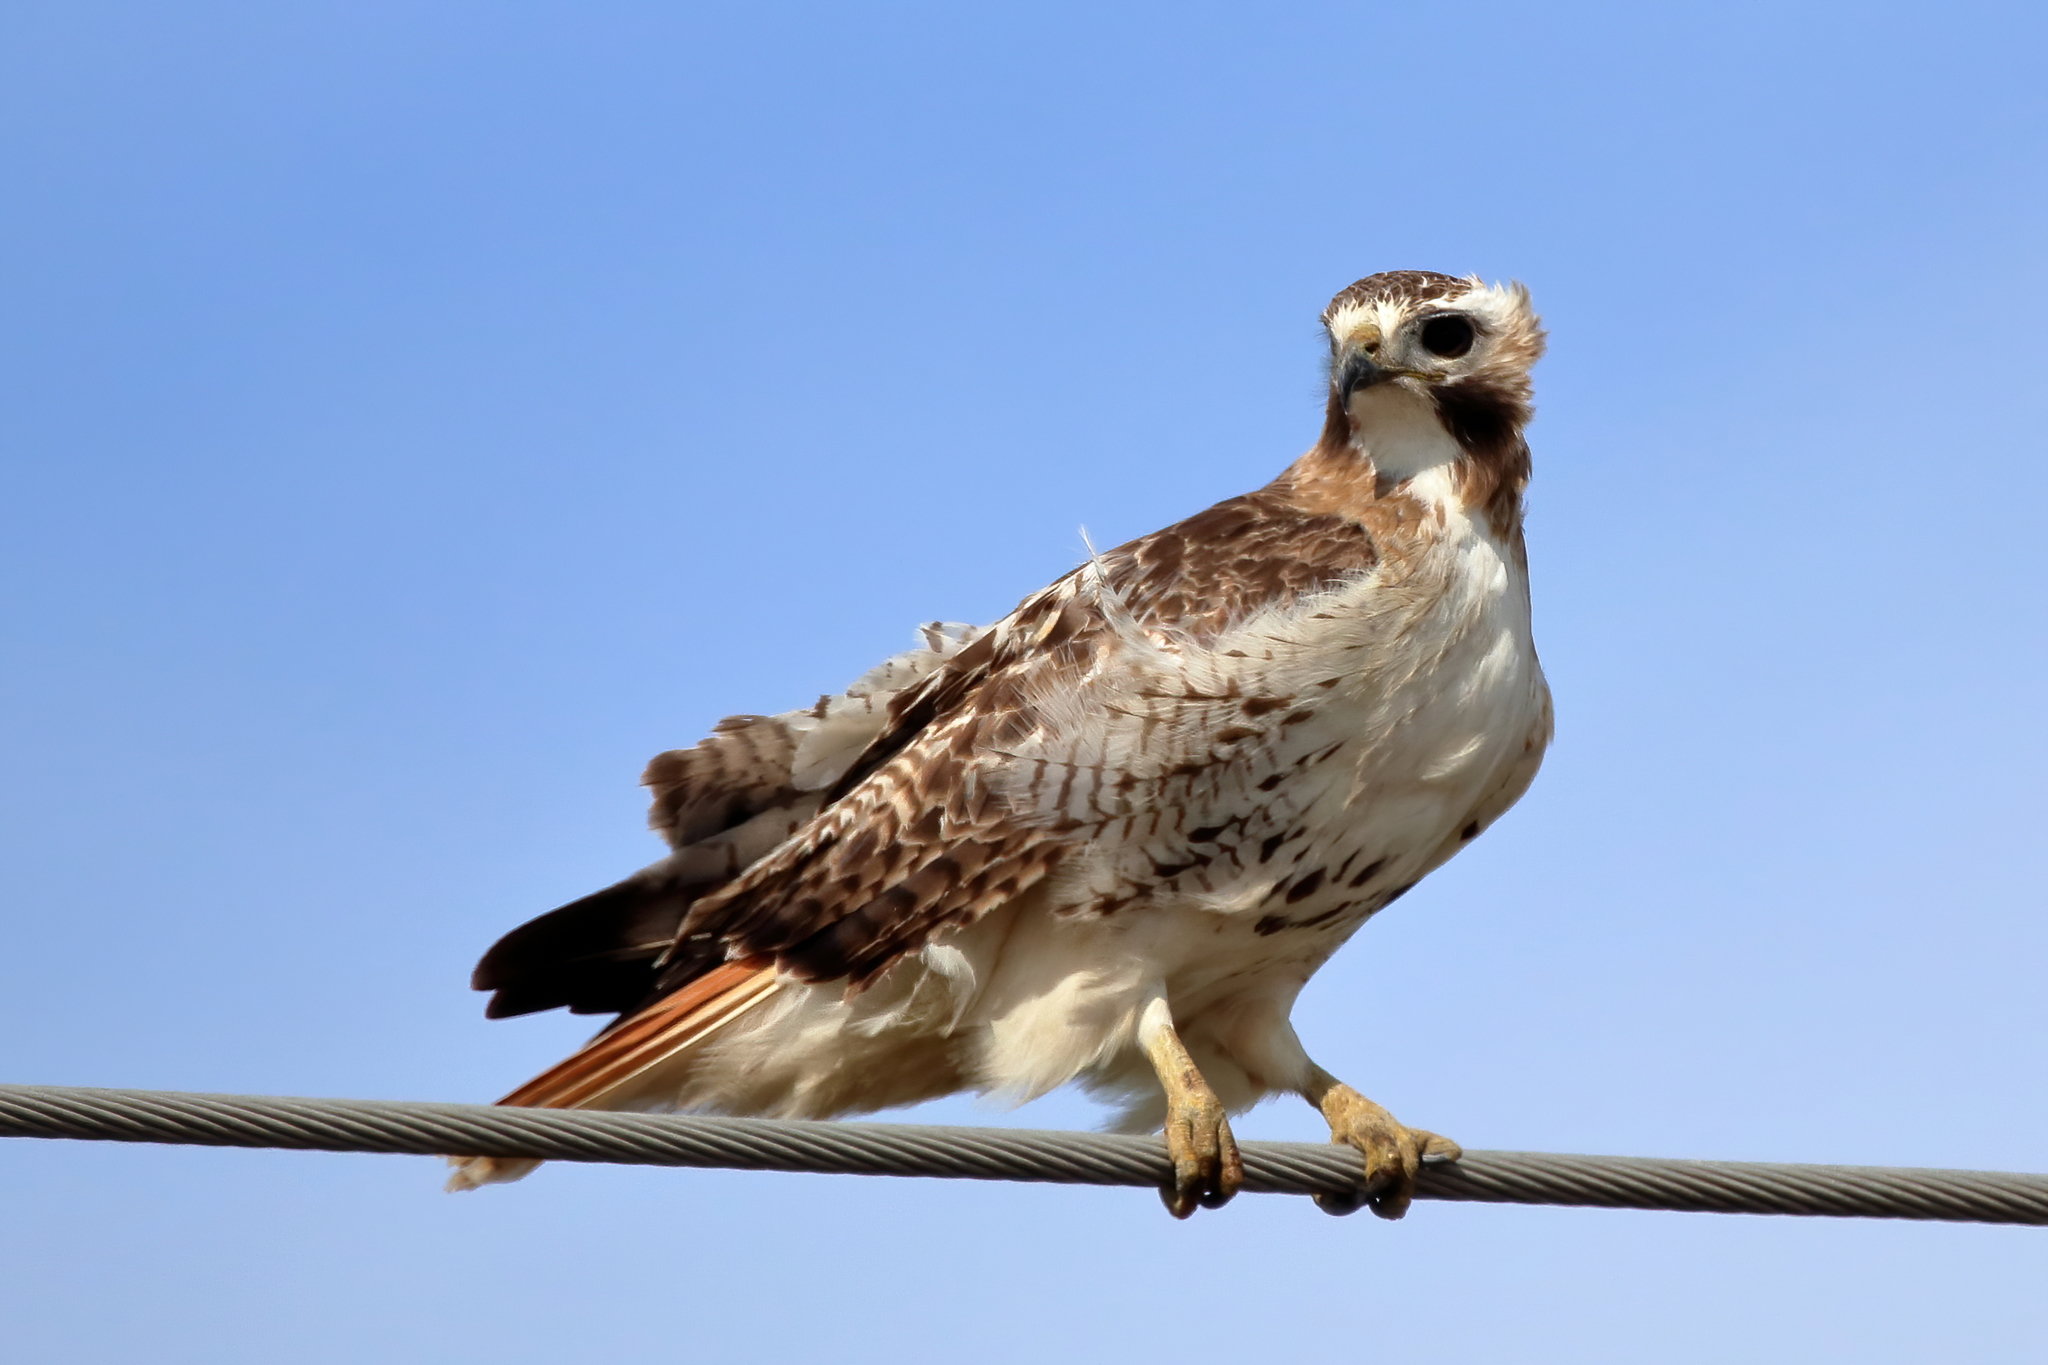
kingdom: Animalia
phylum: Chordata
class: Aves
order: Accipitriformes
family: Accipitridae
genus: Buteo
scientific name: Buteo jamaicensis
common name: Red-tailed hawk
